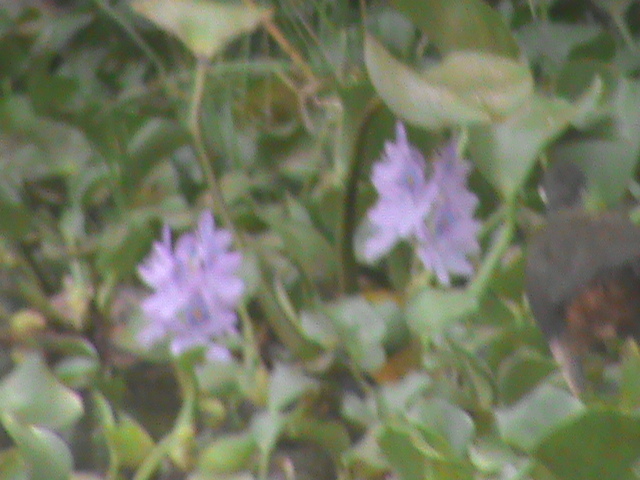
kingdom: Plantae
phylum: Tracheophyta
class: Liliopsida
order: Commelinales
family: Pontederiaceae
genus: Pontederia
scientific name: Pontederia crassipes
